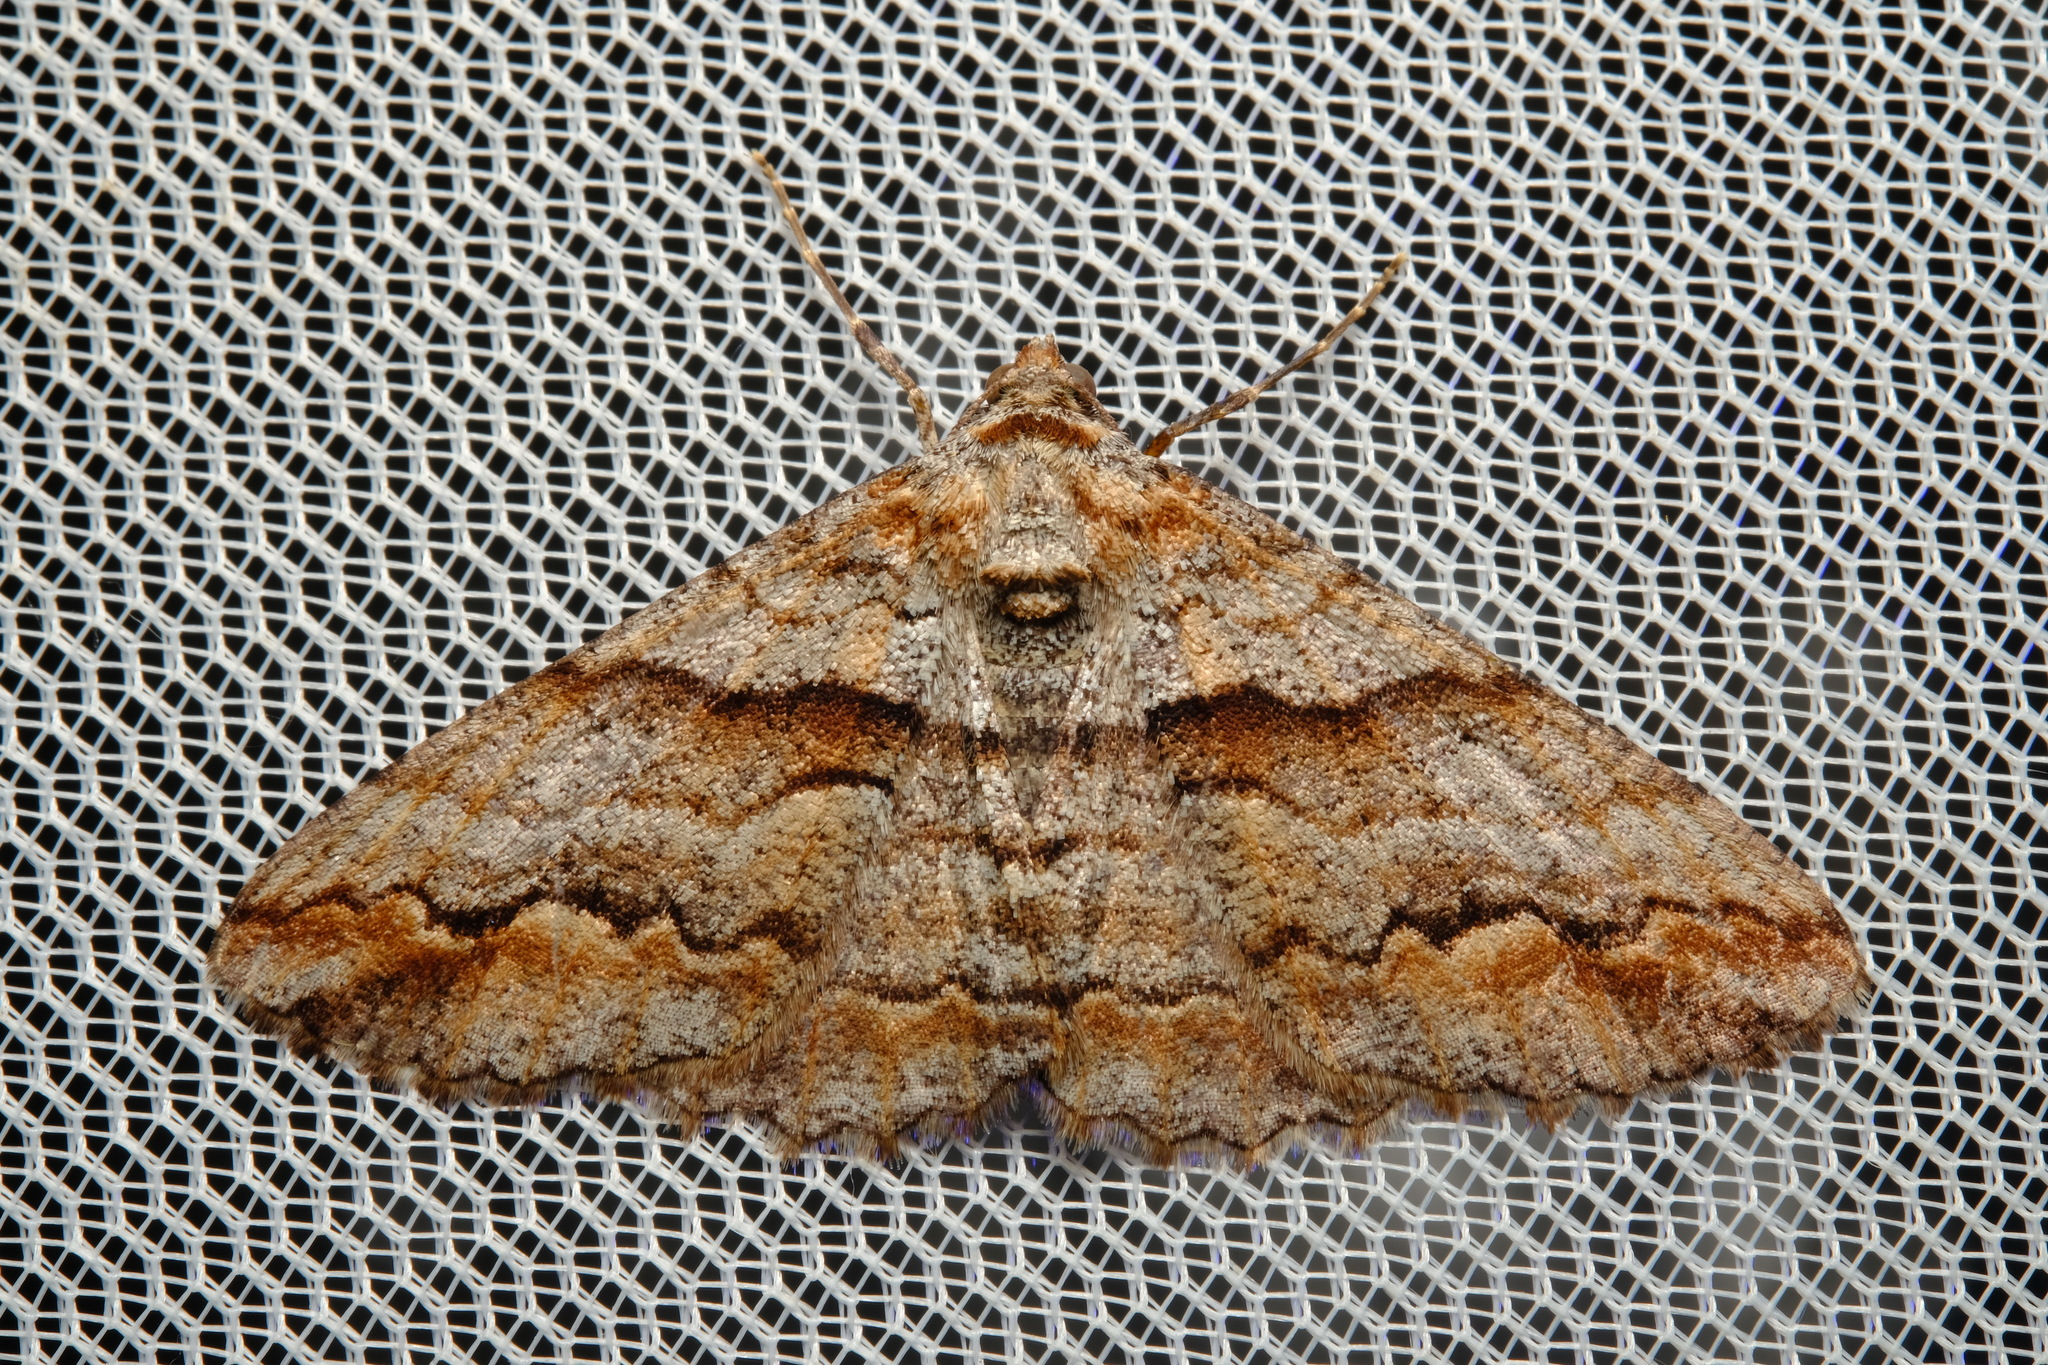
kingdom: Animalia
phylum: Arthropoda
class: Insecta
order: Lepidoptera
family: Geometridae
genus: Gastrinodes
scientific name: Gastrinodes bitaeniaria
